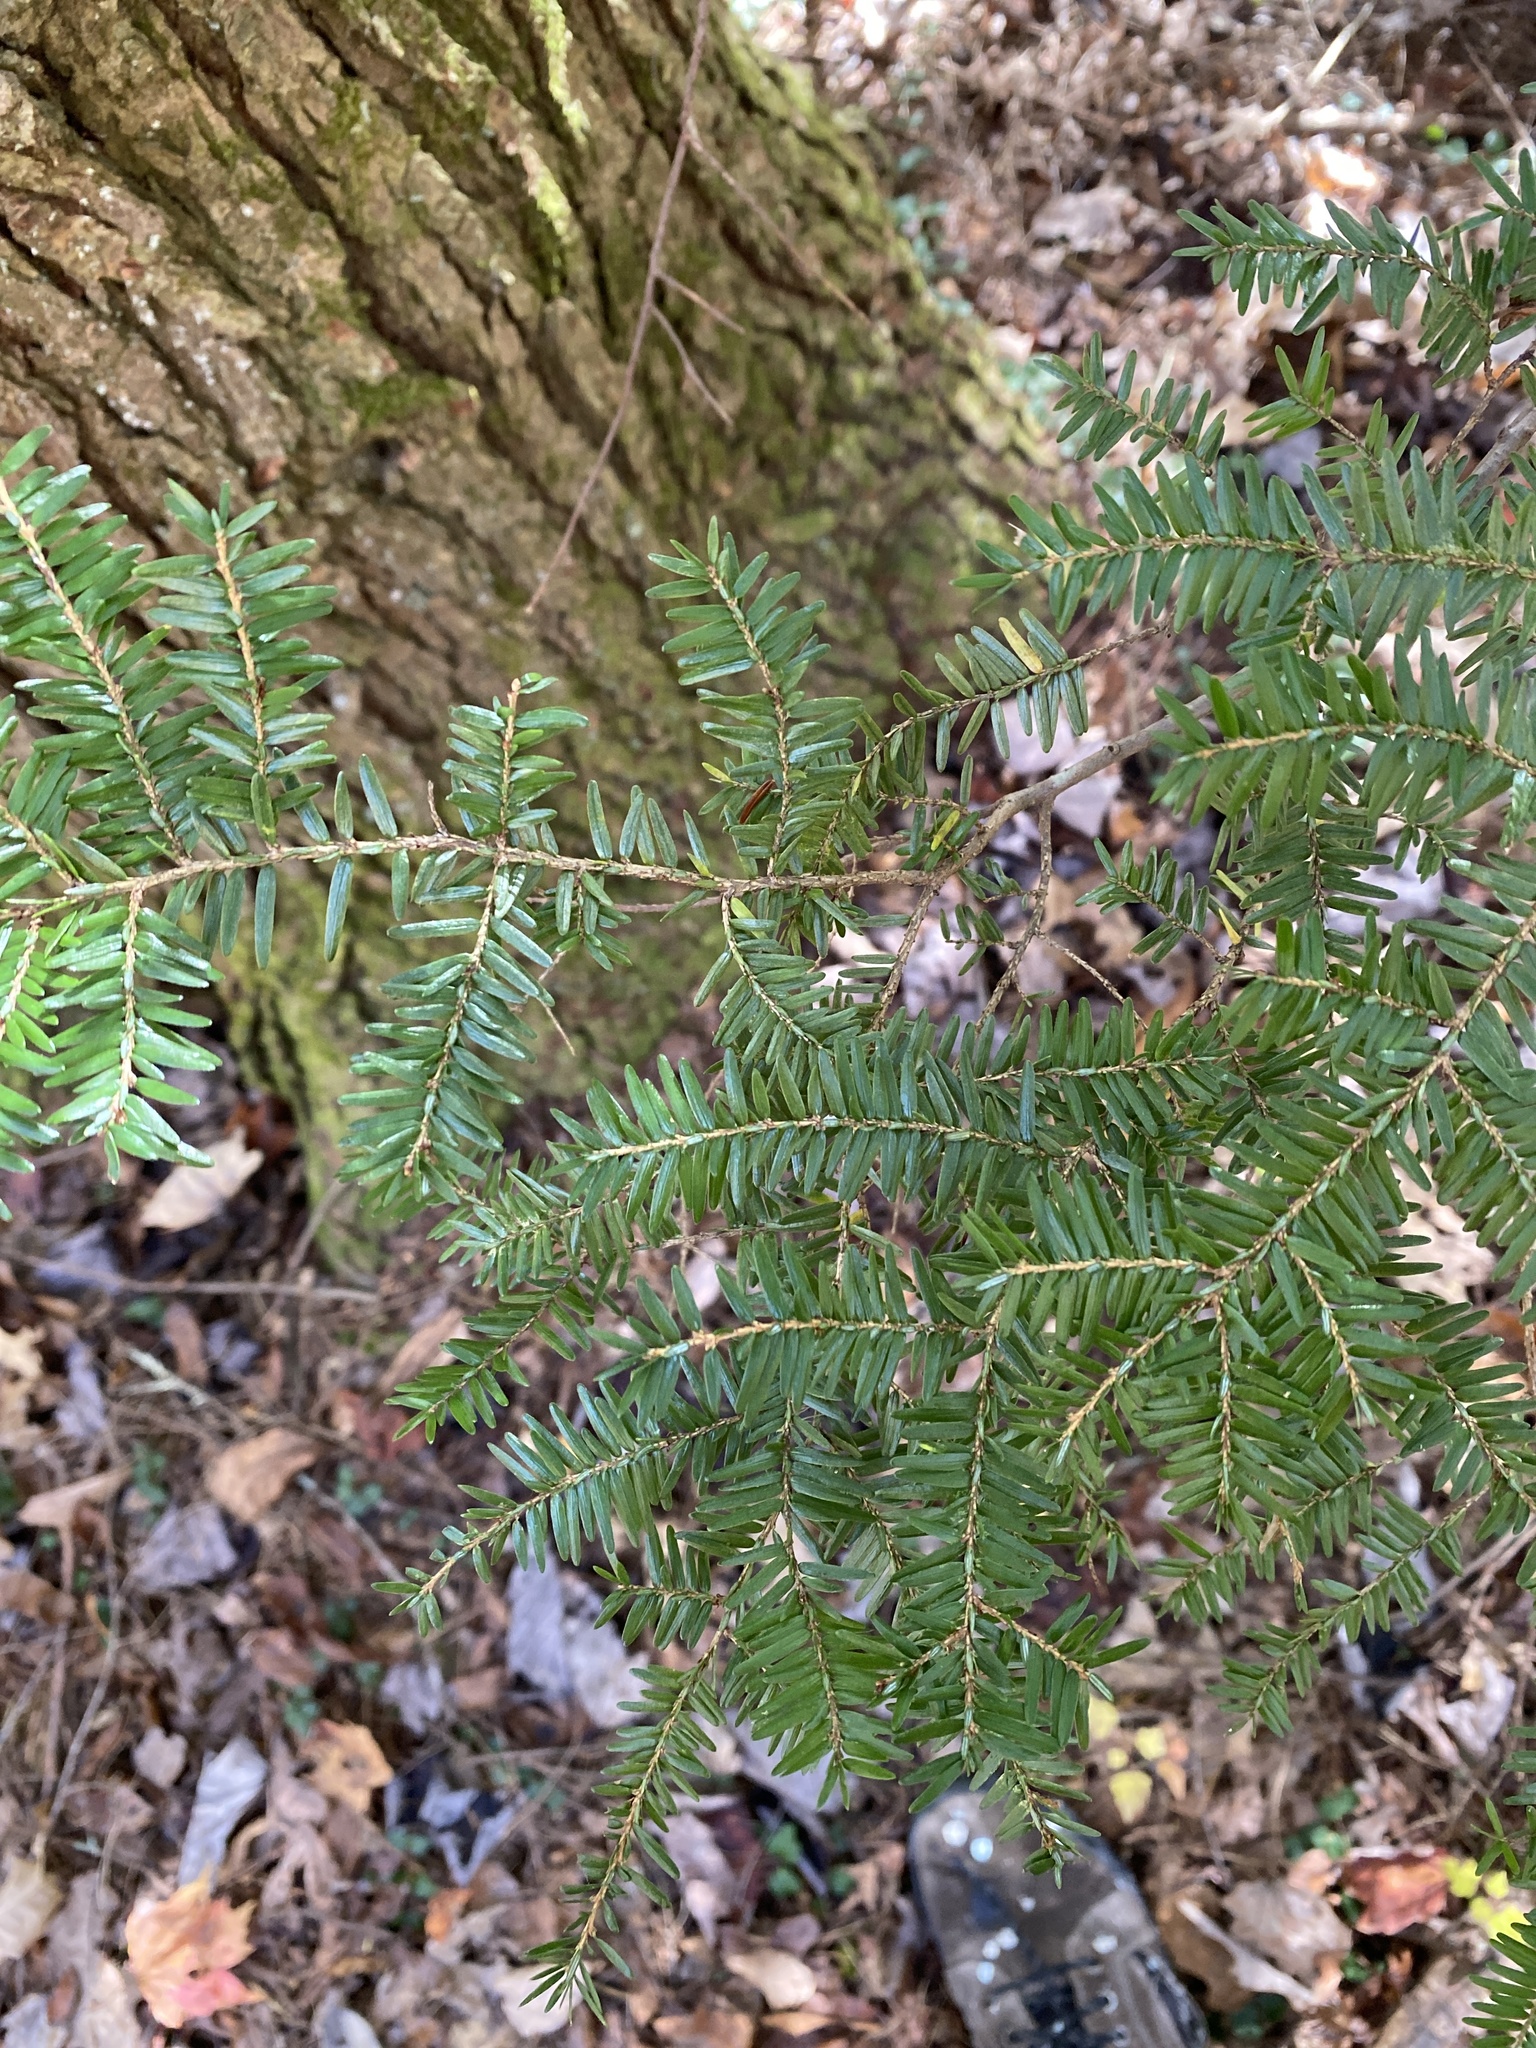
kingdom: Plantae
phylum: Tracheophyta
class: Pinopsida
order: Pinales
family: Pinaceae
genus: Tsuga
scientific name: Tsuga canadensis
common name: Eastern hemlock
